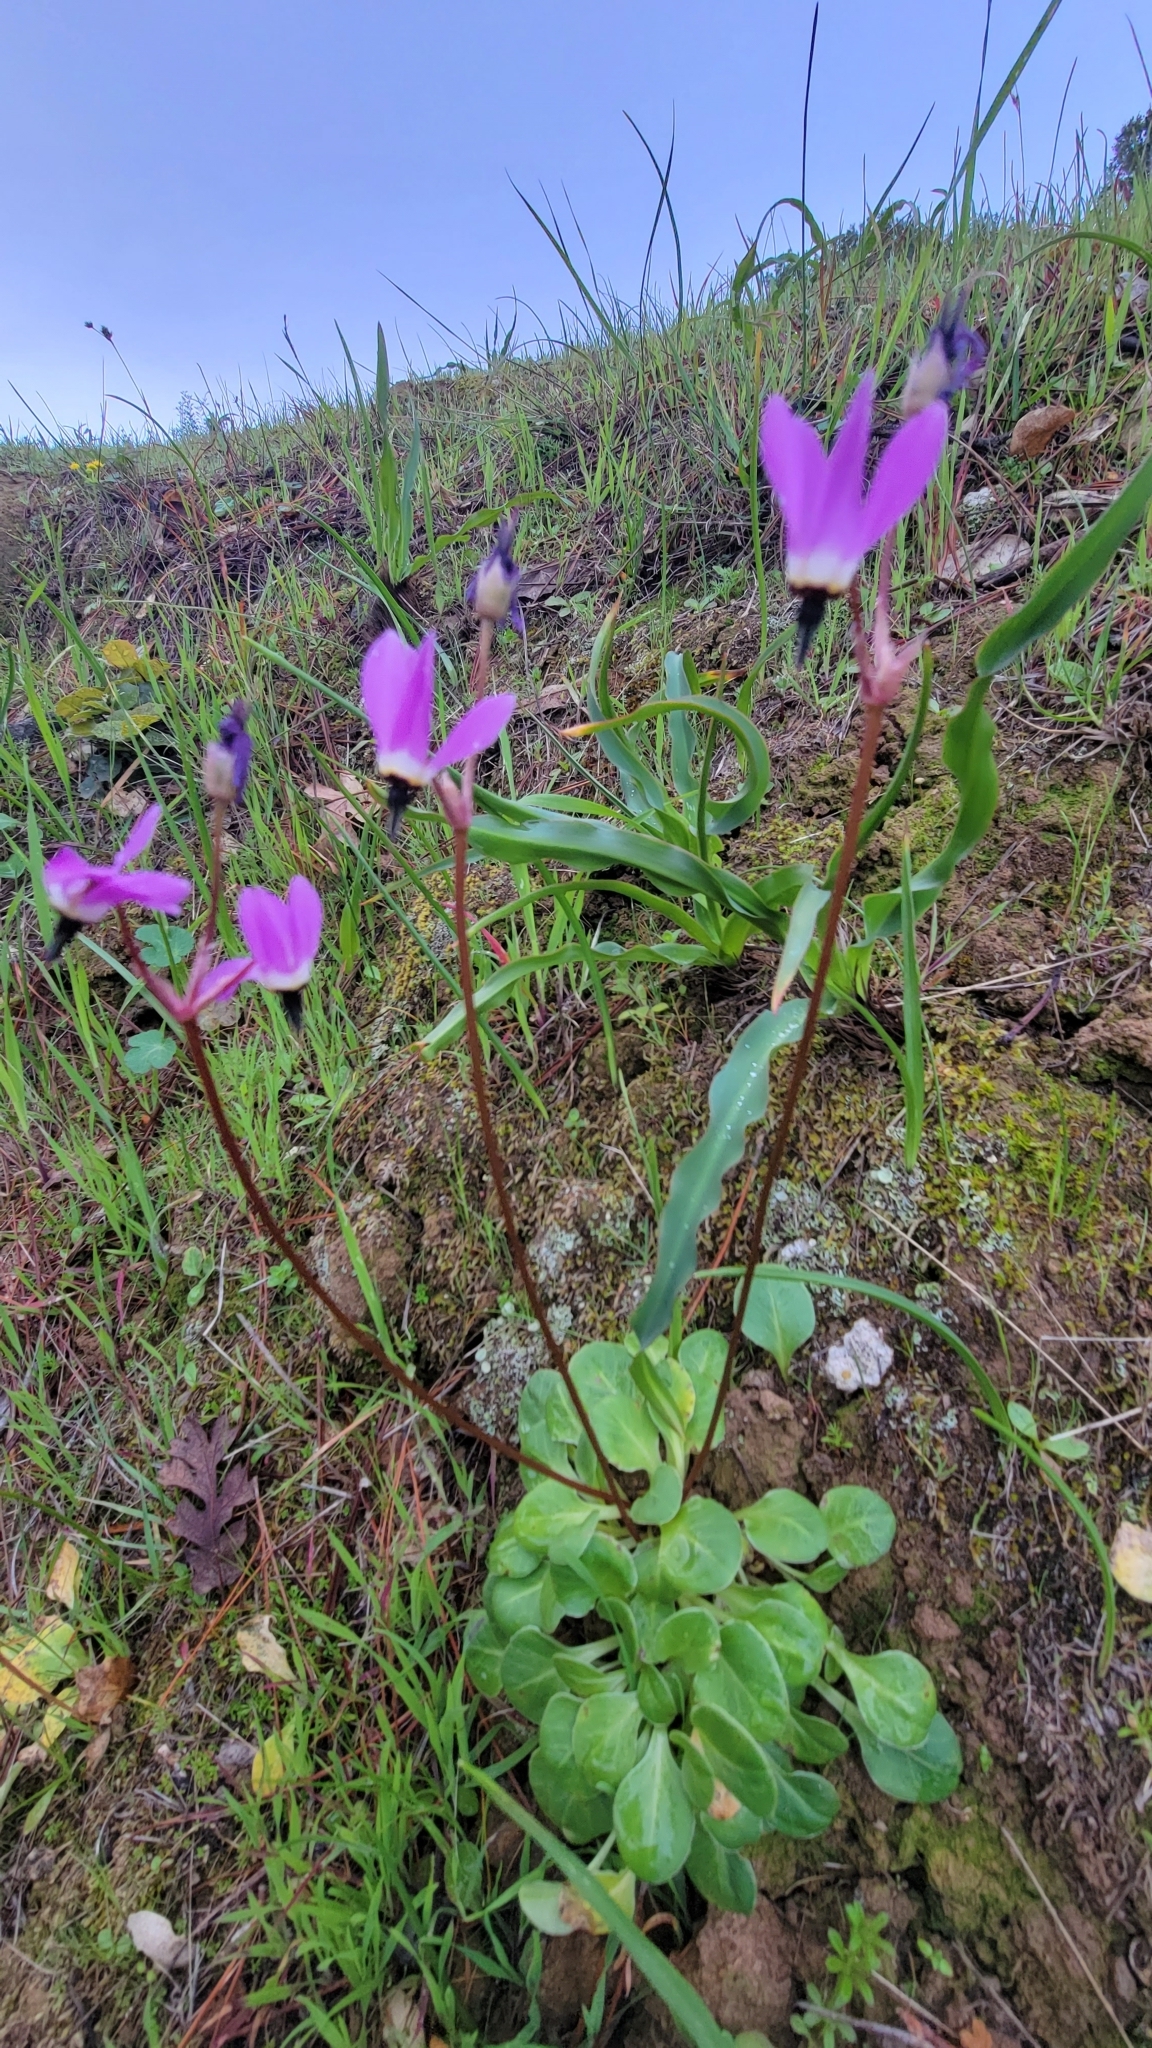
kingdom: Plantae
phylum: Tracheophyta
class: Magnoliopsida
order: Ericales
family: Primulaceae
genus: Dodecatheon
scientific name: Dodecatheon hendersonii
